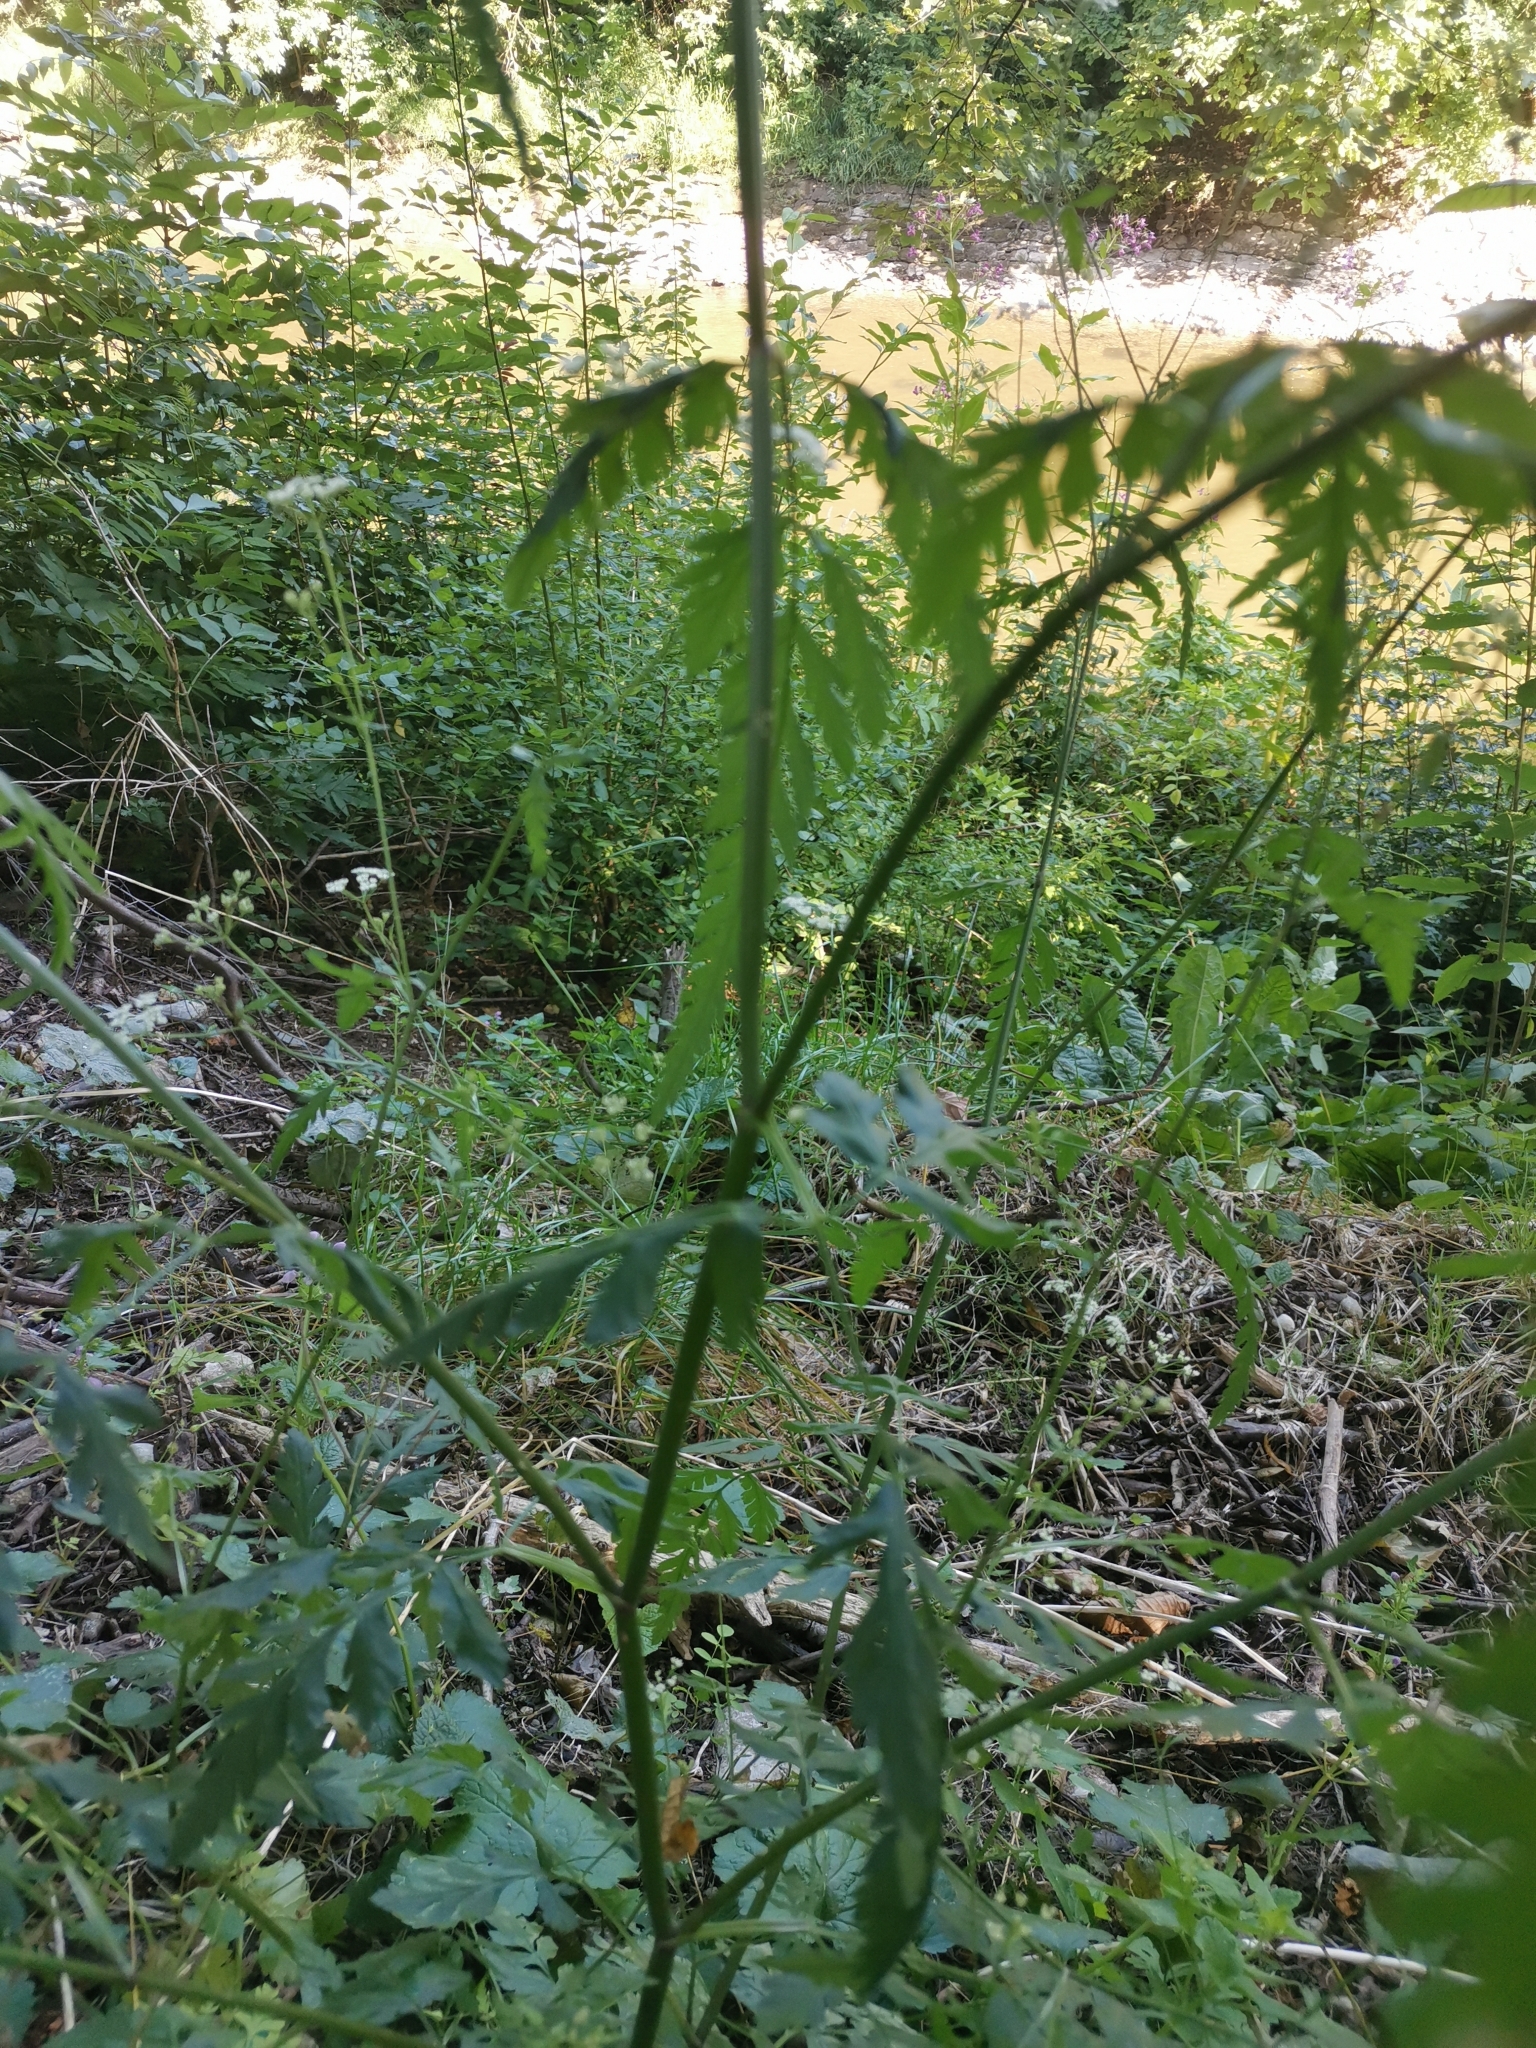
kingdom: Plantae
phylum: Tracheophyta
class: Magnoliopsida
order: Apiales
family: Apiaceae
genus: Torilis
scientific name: Torilis japonica
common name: Upright hedge-parsley
